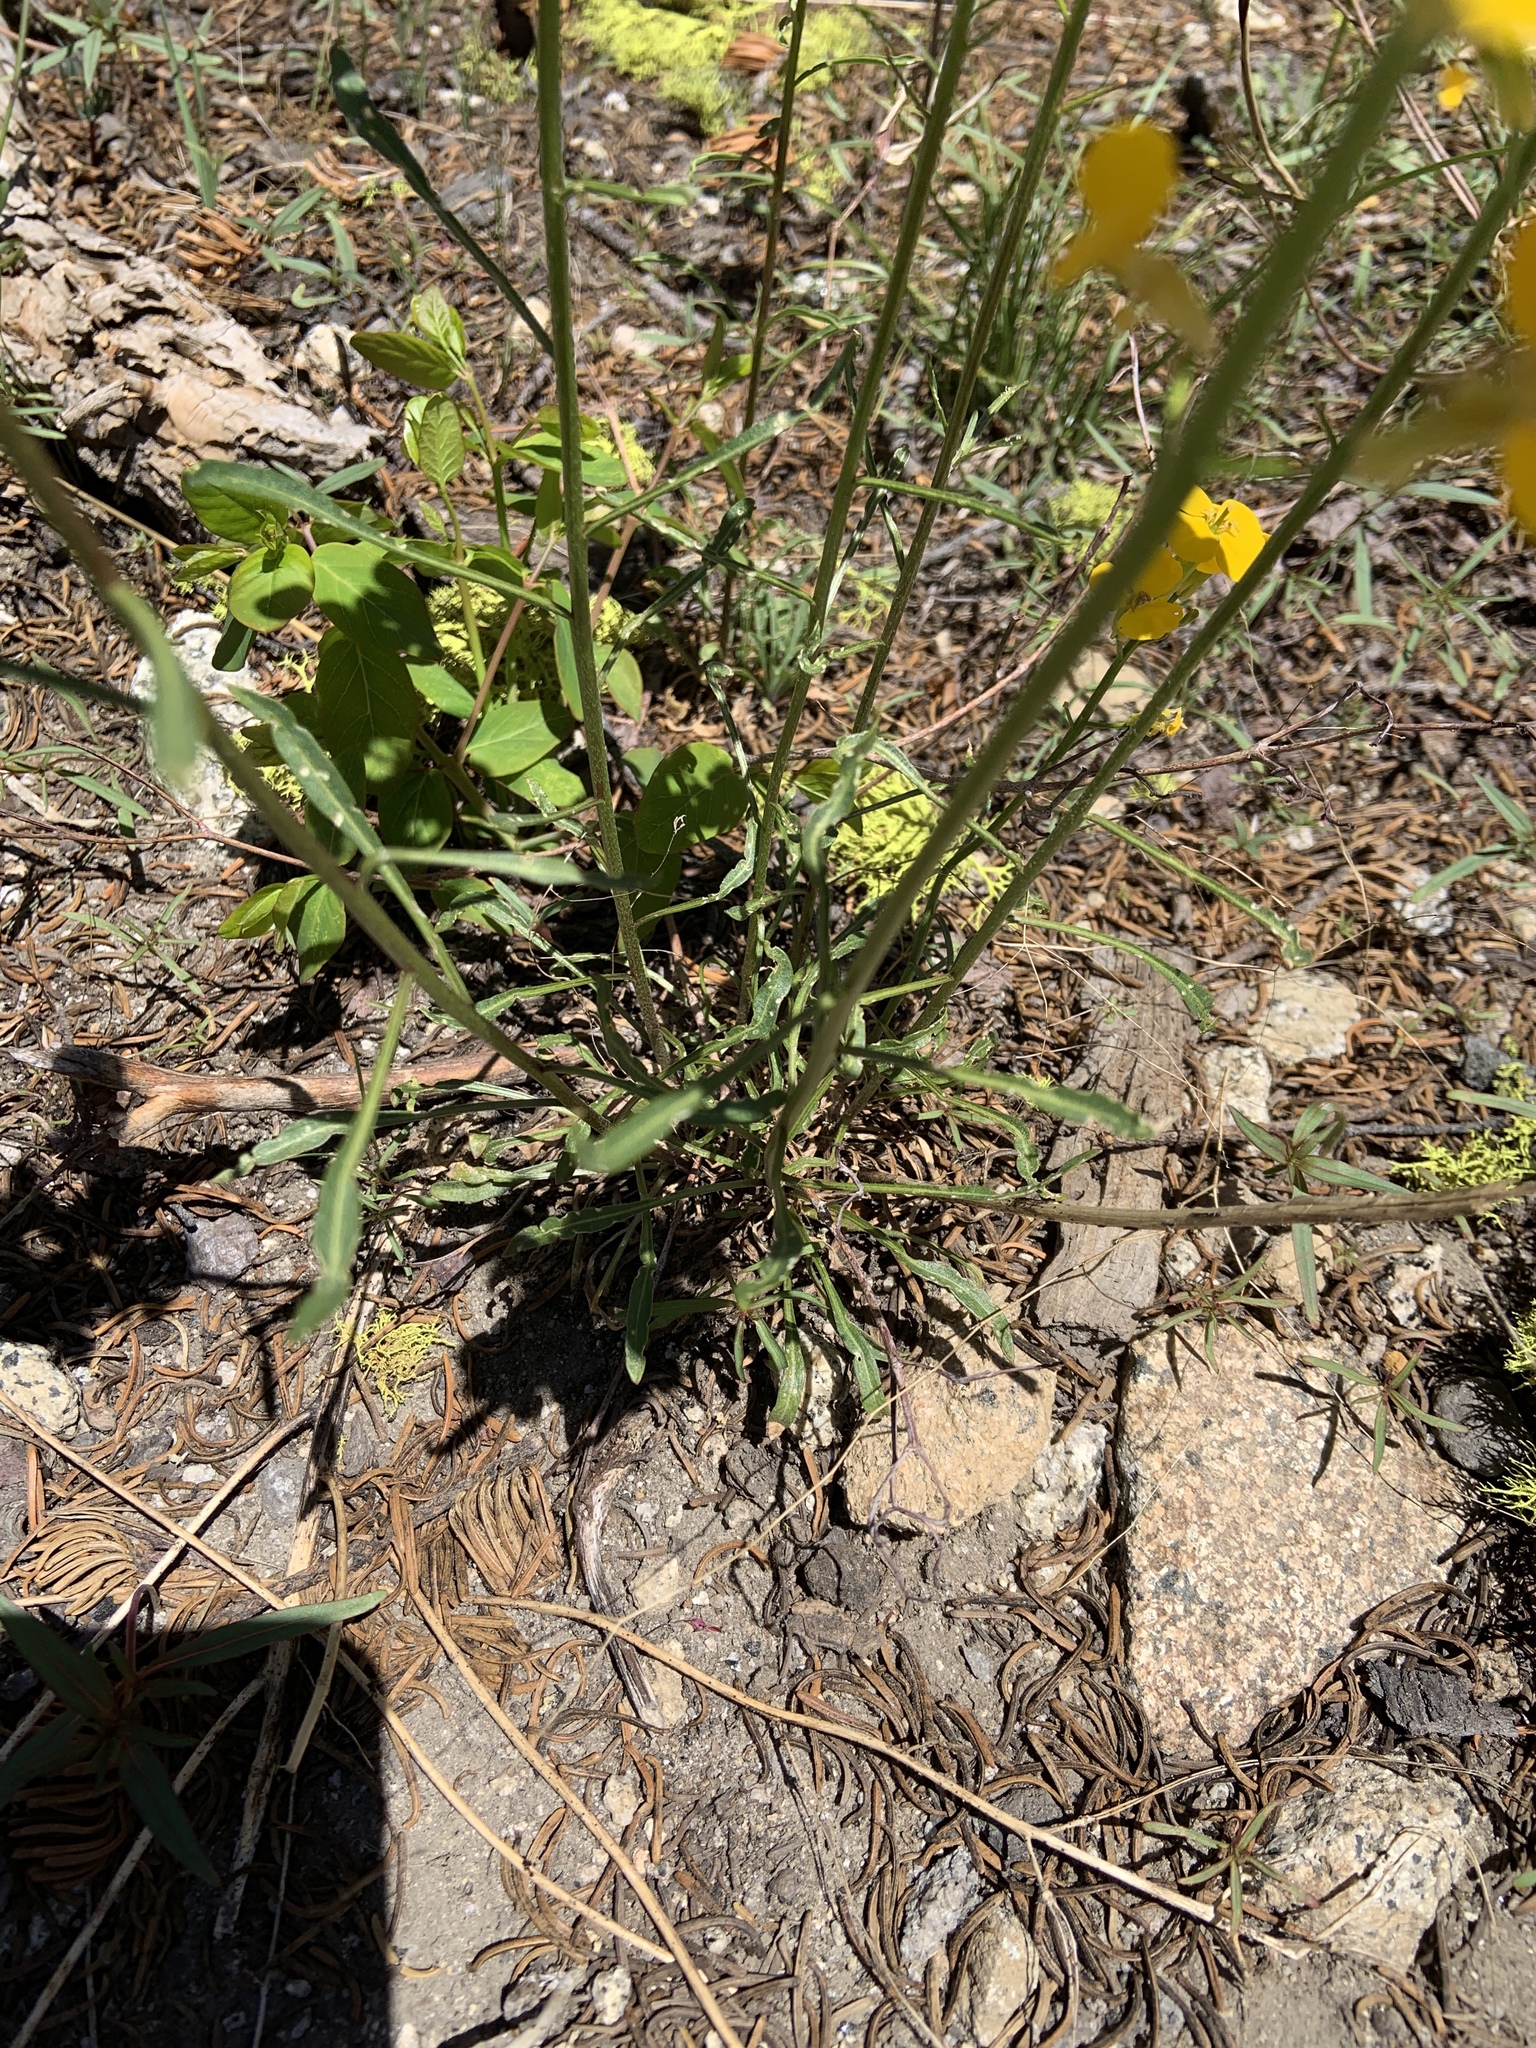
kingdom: Plantae
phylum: Tracheophyta
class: Magnoliopsida
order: Brassicales
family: Brassicaceae
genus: Erysimum
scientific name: Erysimum capitatum
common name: Western wallflower
